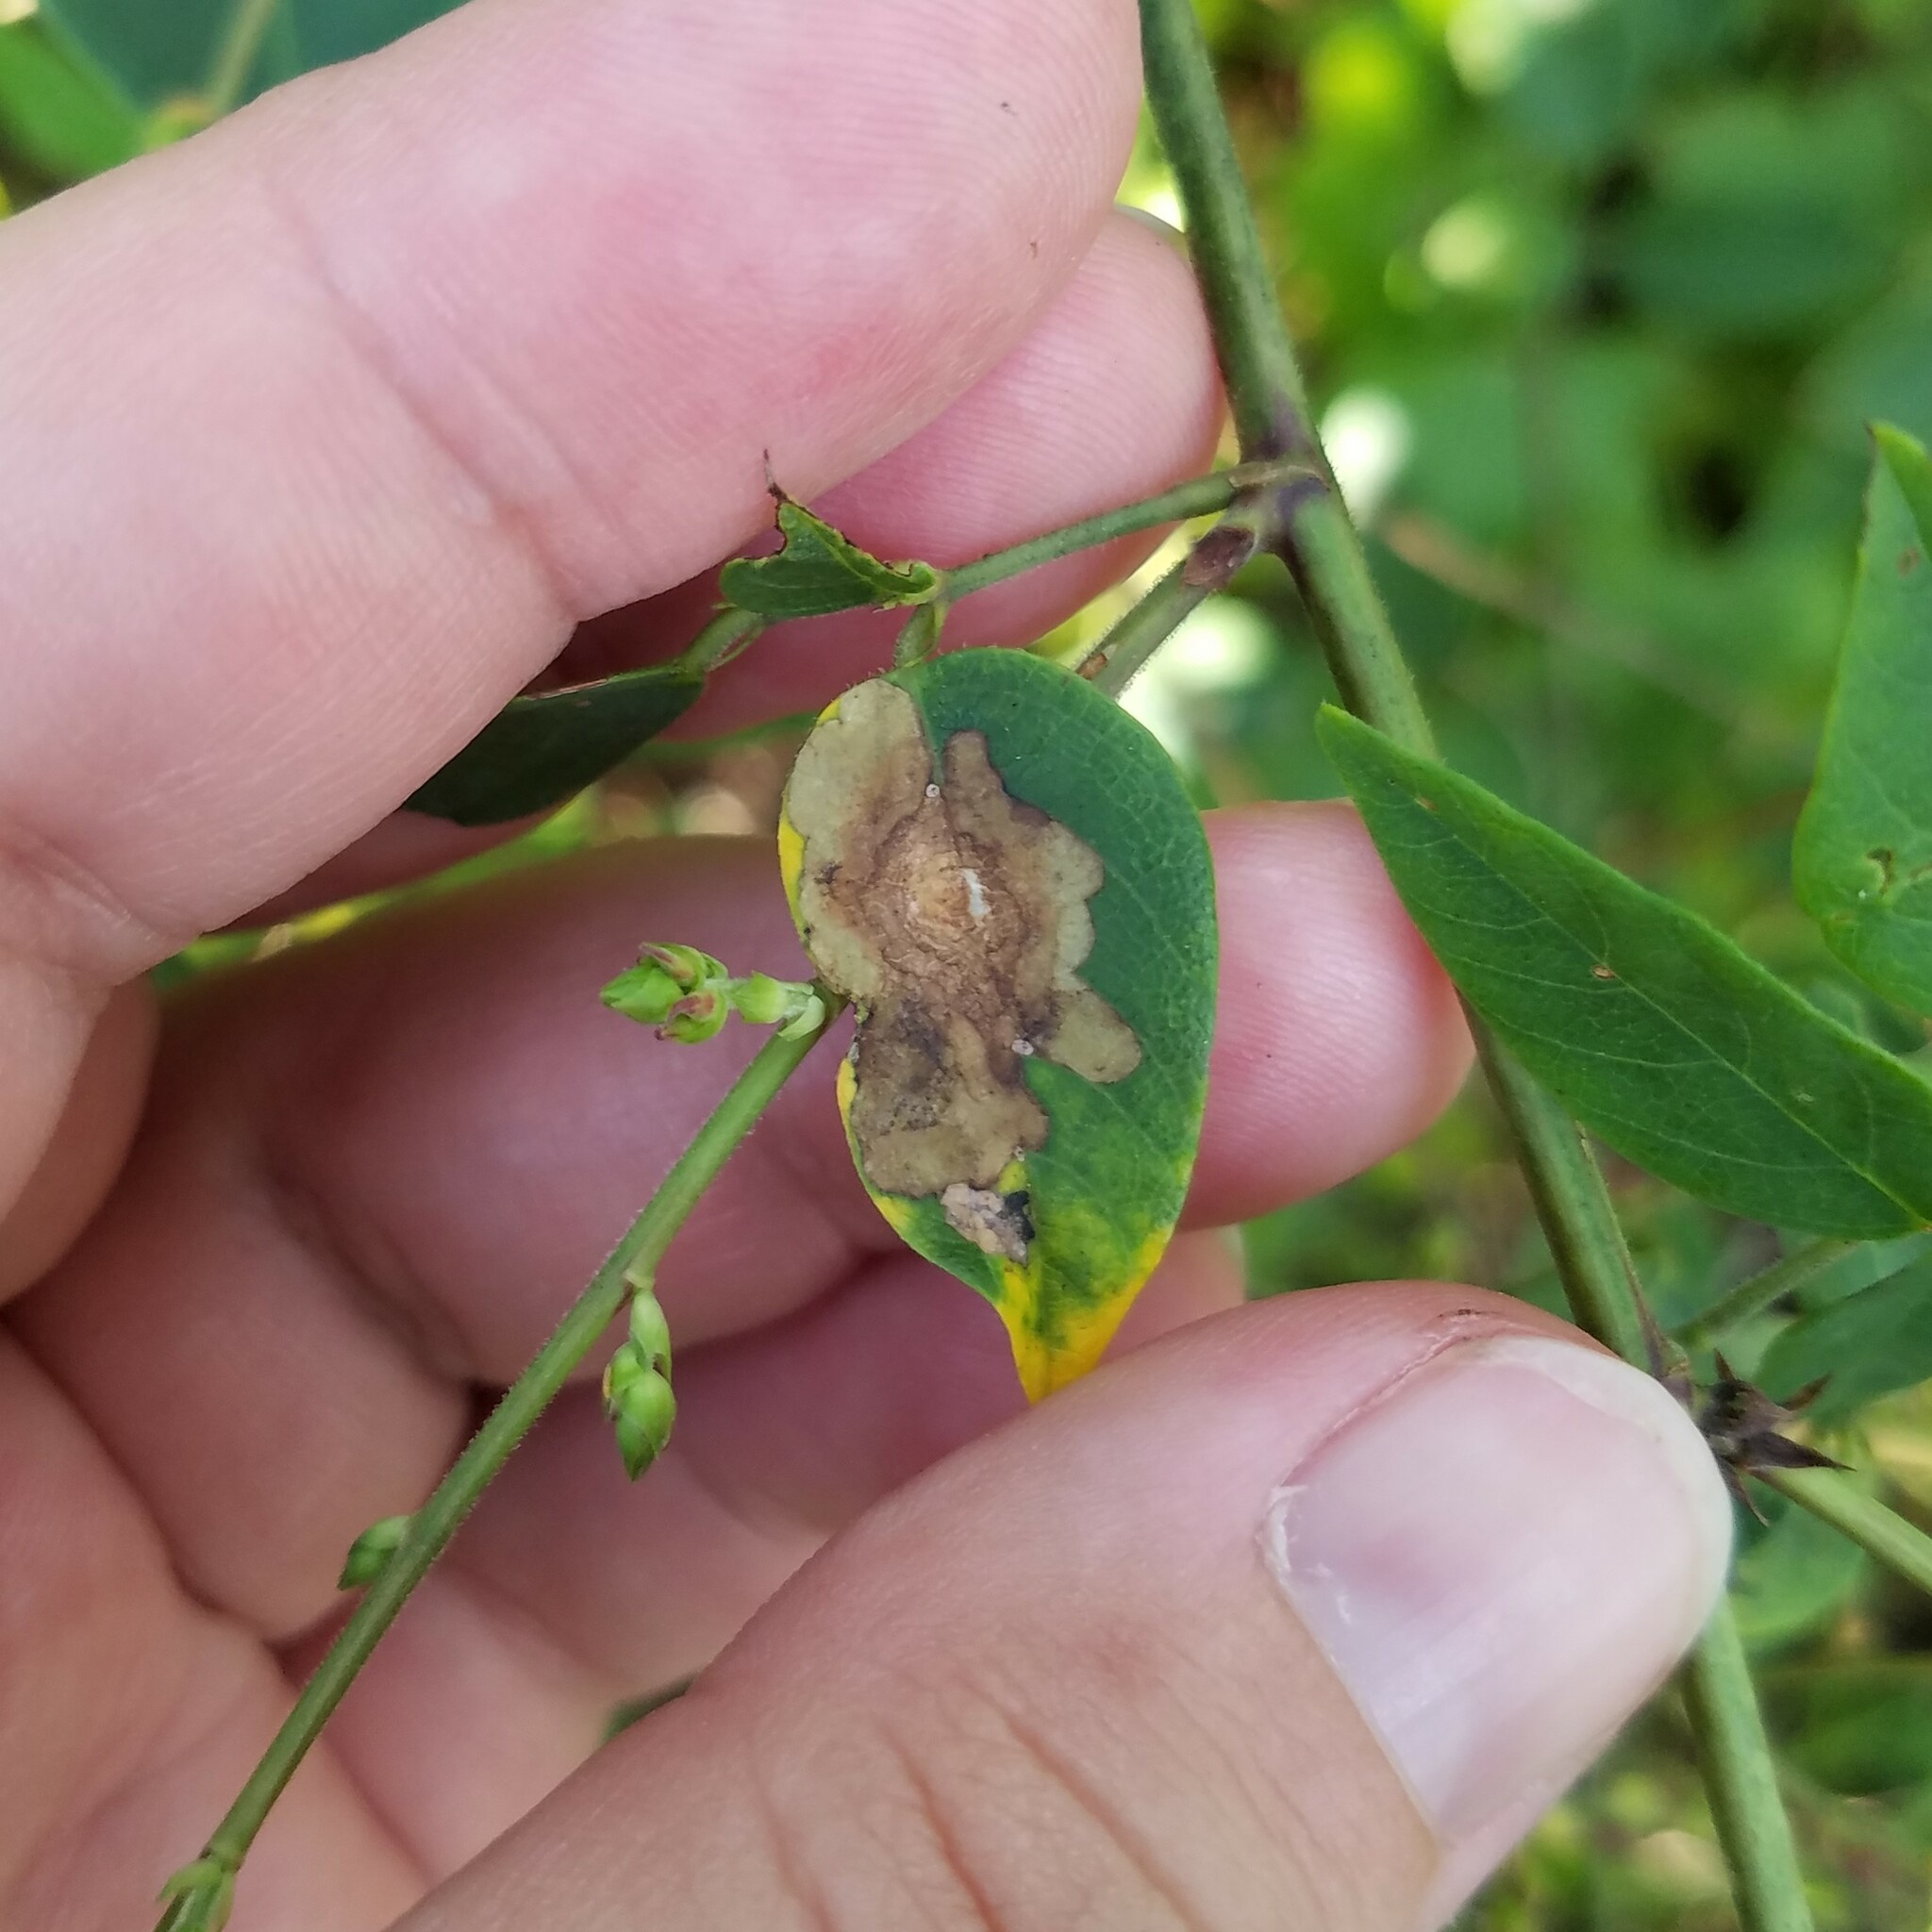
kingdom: Animalia
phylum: Arthropoda
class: Insecta
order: Lepidoptera
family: Gracillariidae
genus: Parectopa
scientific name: Parectopa robiniella
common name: Locust digitate leafminer
